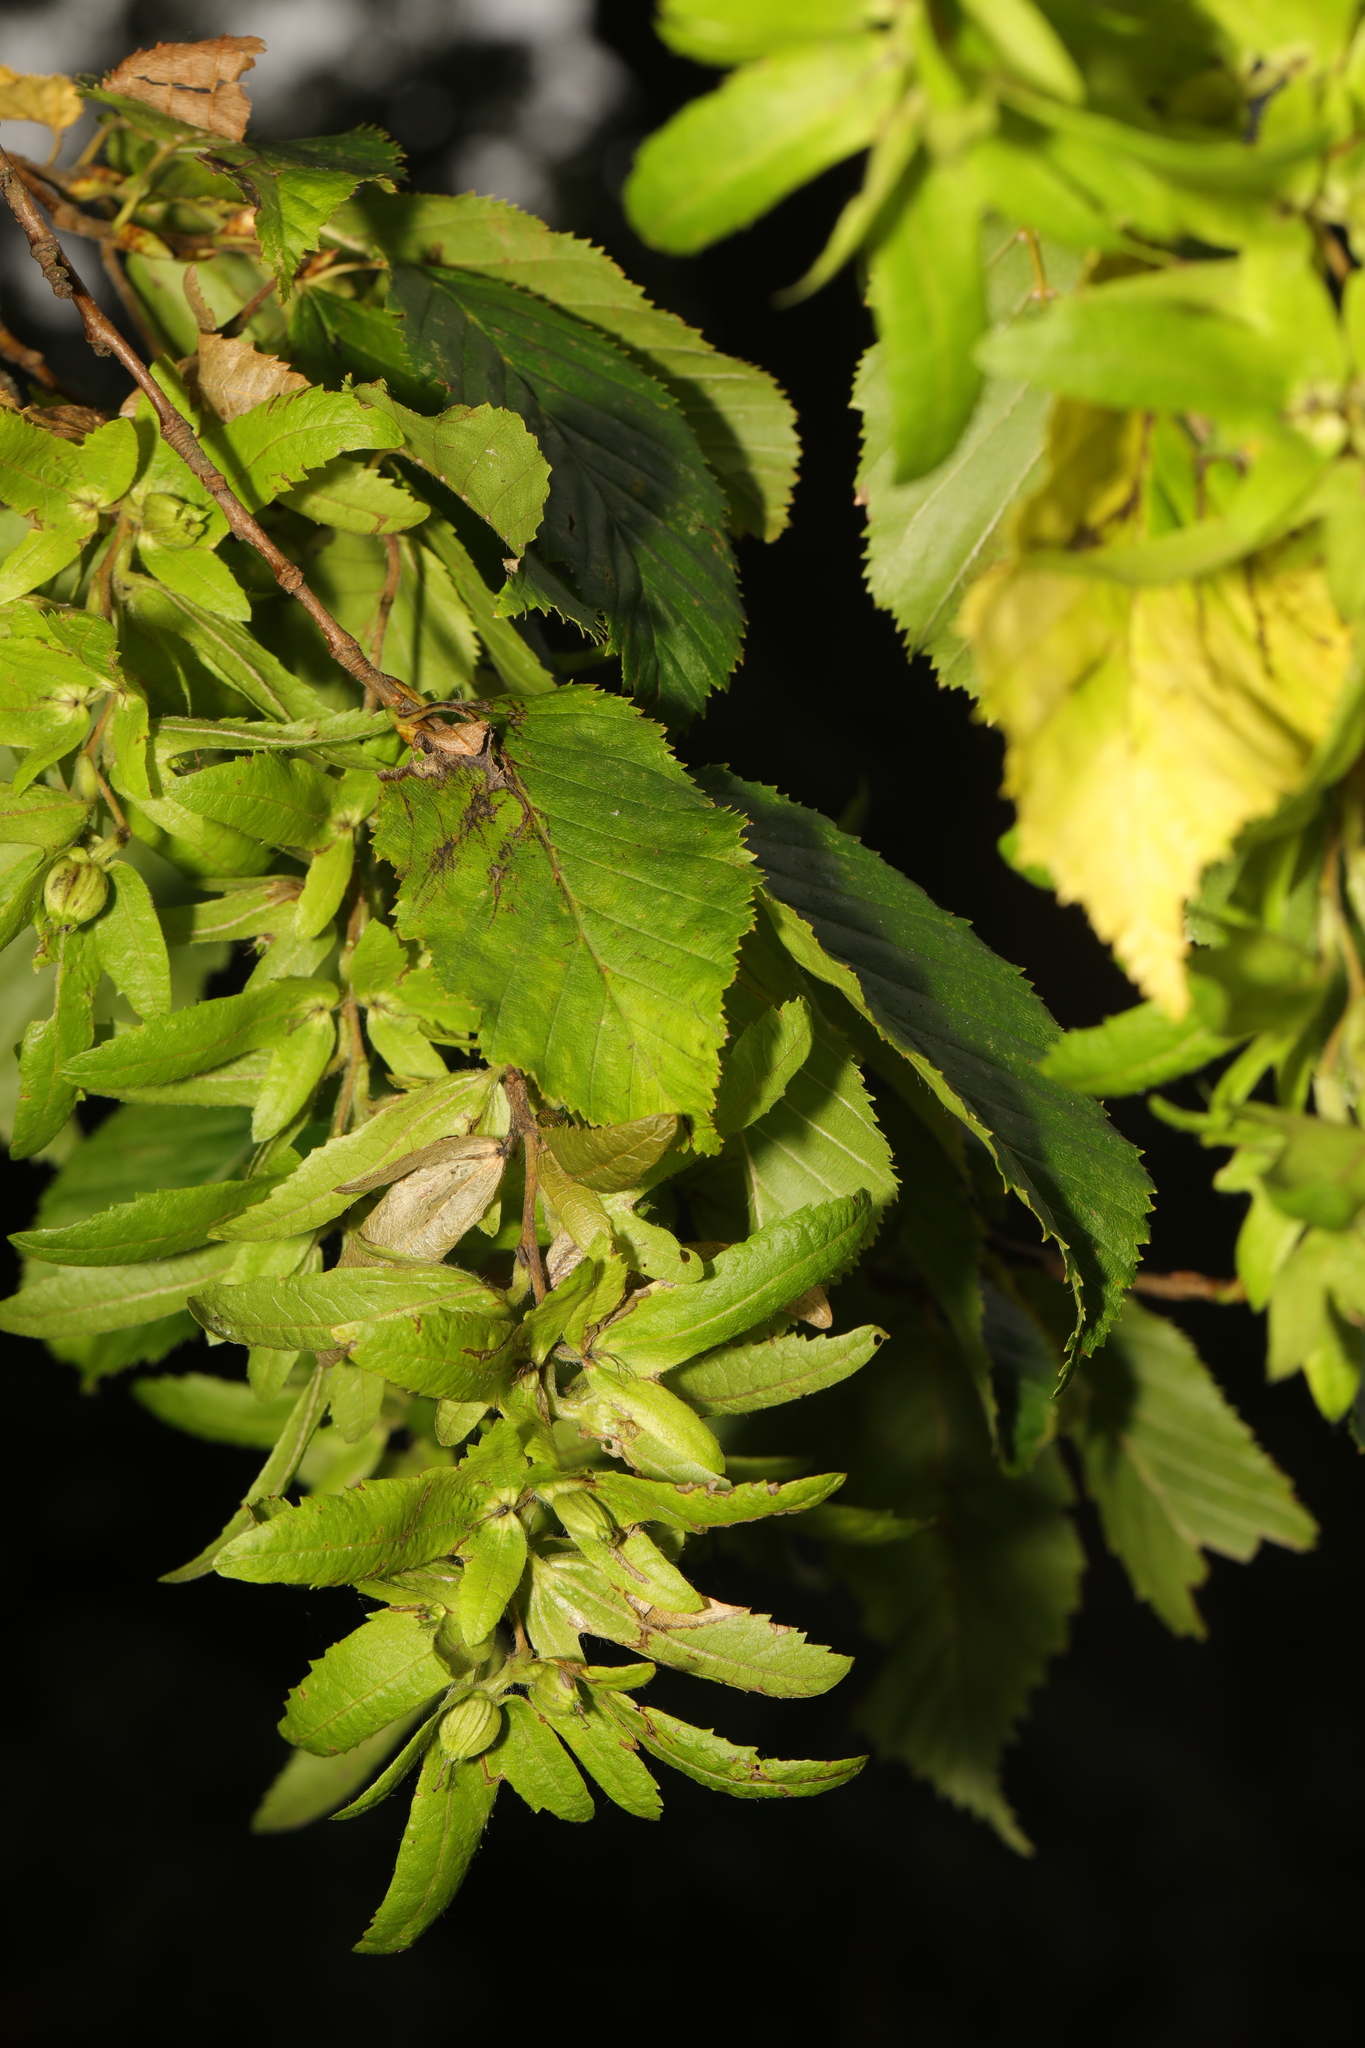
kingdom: Plantae
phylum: Tracheophyta
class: Magnoliopsida
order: Fagales
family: Betulaceae
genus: Carpinus
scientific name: Carpinus betulus
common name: Hornbeam
